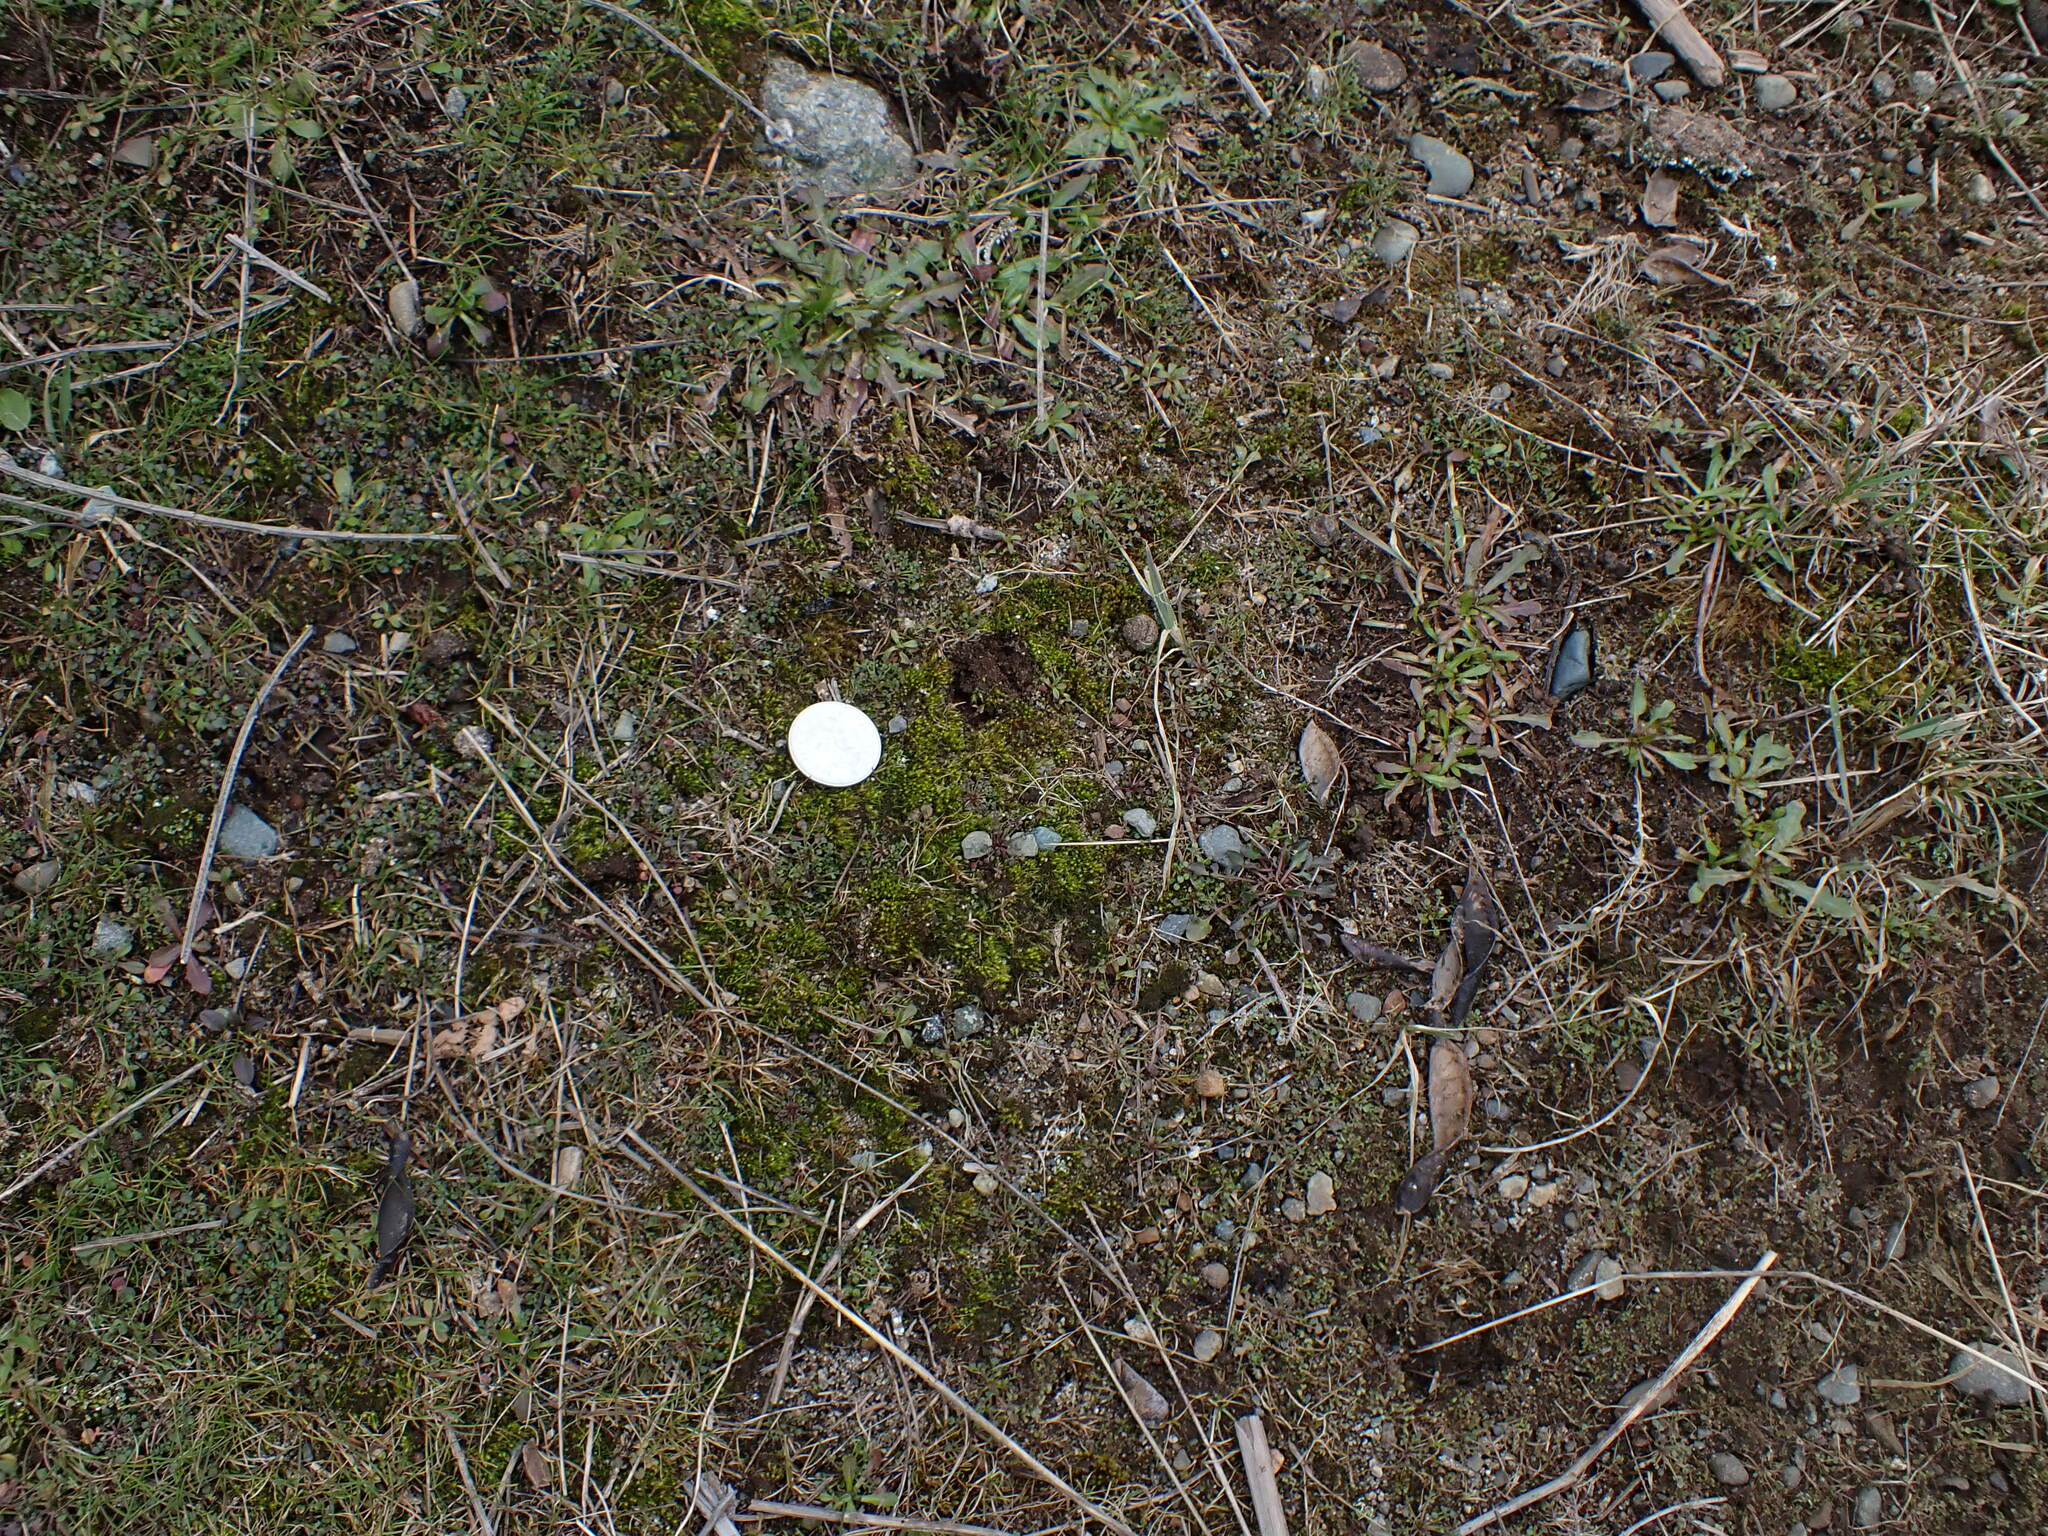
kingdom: Plantae
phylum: Bryophyta
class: Bryopsida
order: Dicranales
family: Ditrichaceae
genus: Pleuridium
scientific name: Pleuridium acuminatum
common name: Taper-leaved earth-moss
